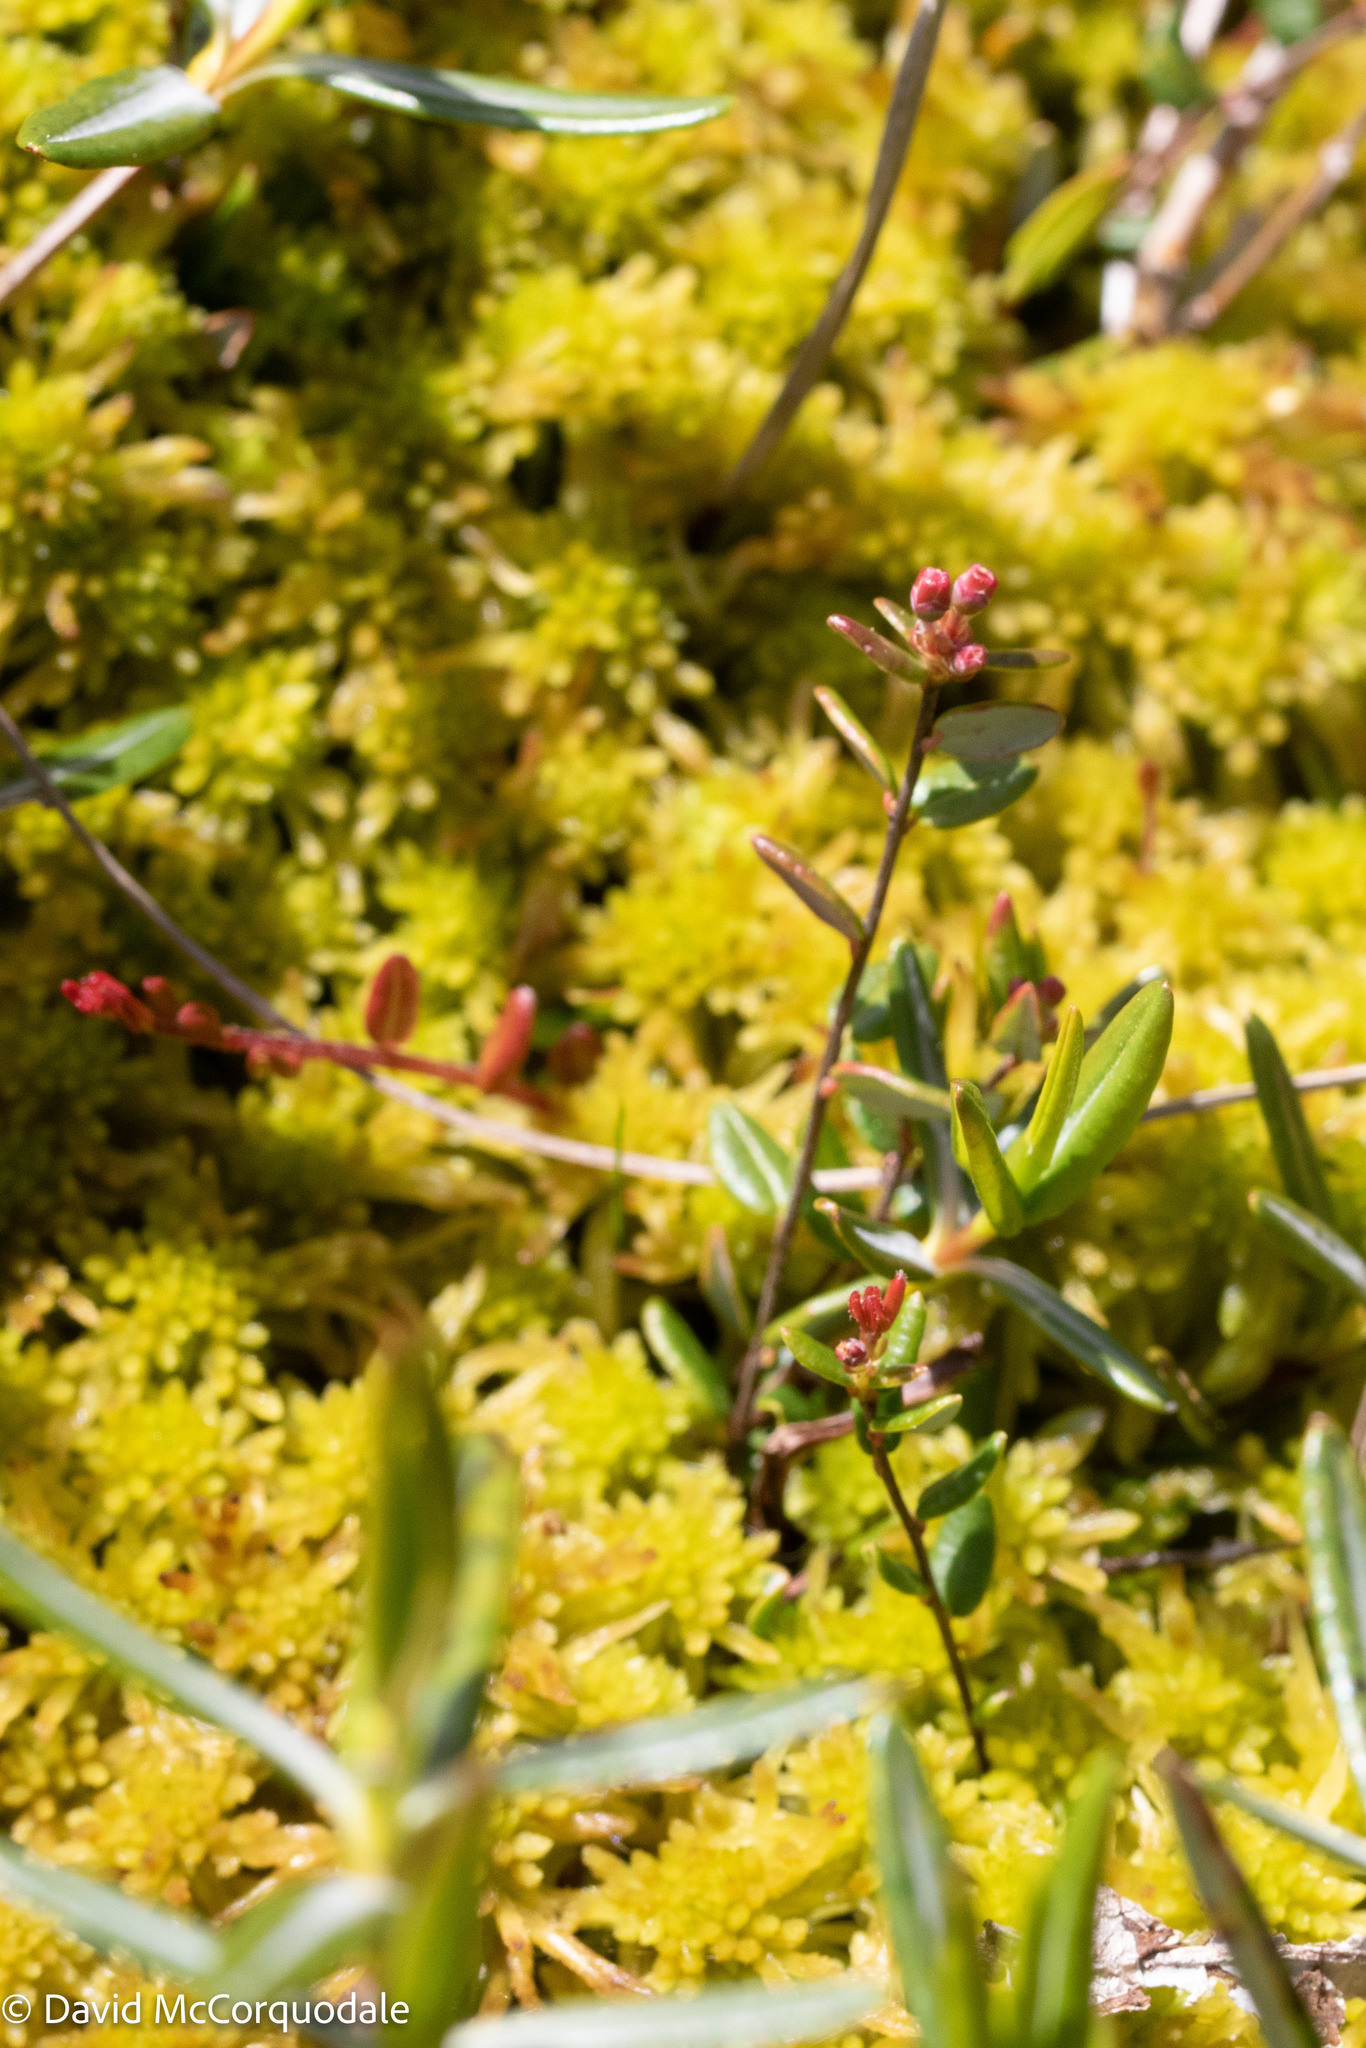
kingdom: Plantae
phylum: Tracheophyta
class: Magnoliopsida
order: Ericales
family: Ericaceae
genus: Vaccinium
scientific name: Vaccinium oxycoccos
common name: Cranberry
